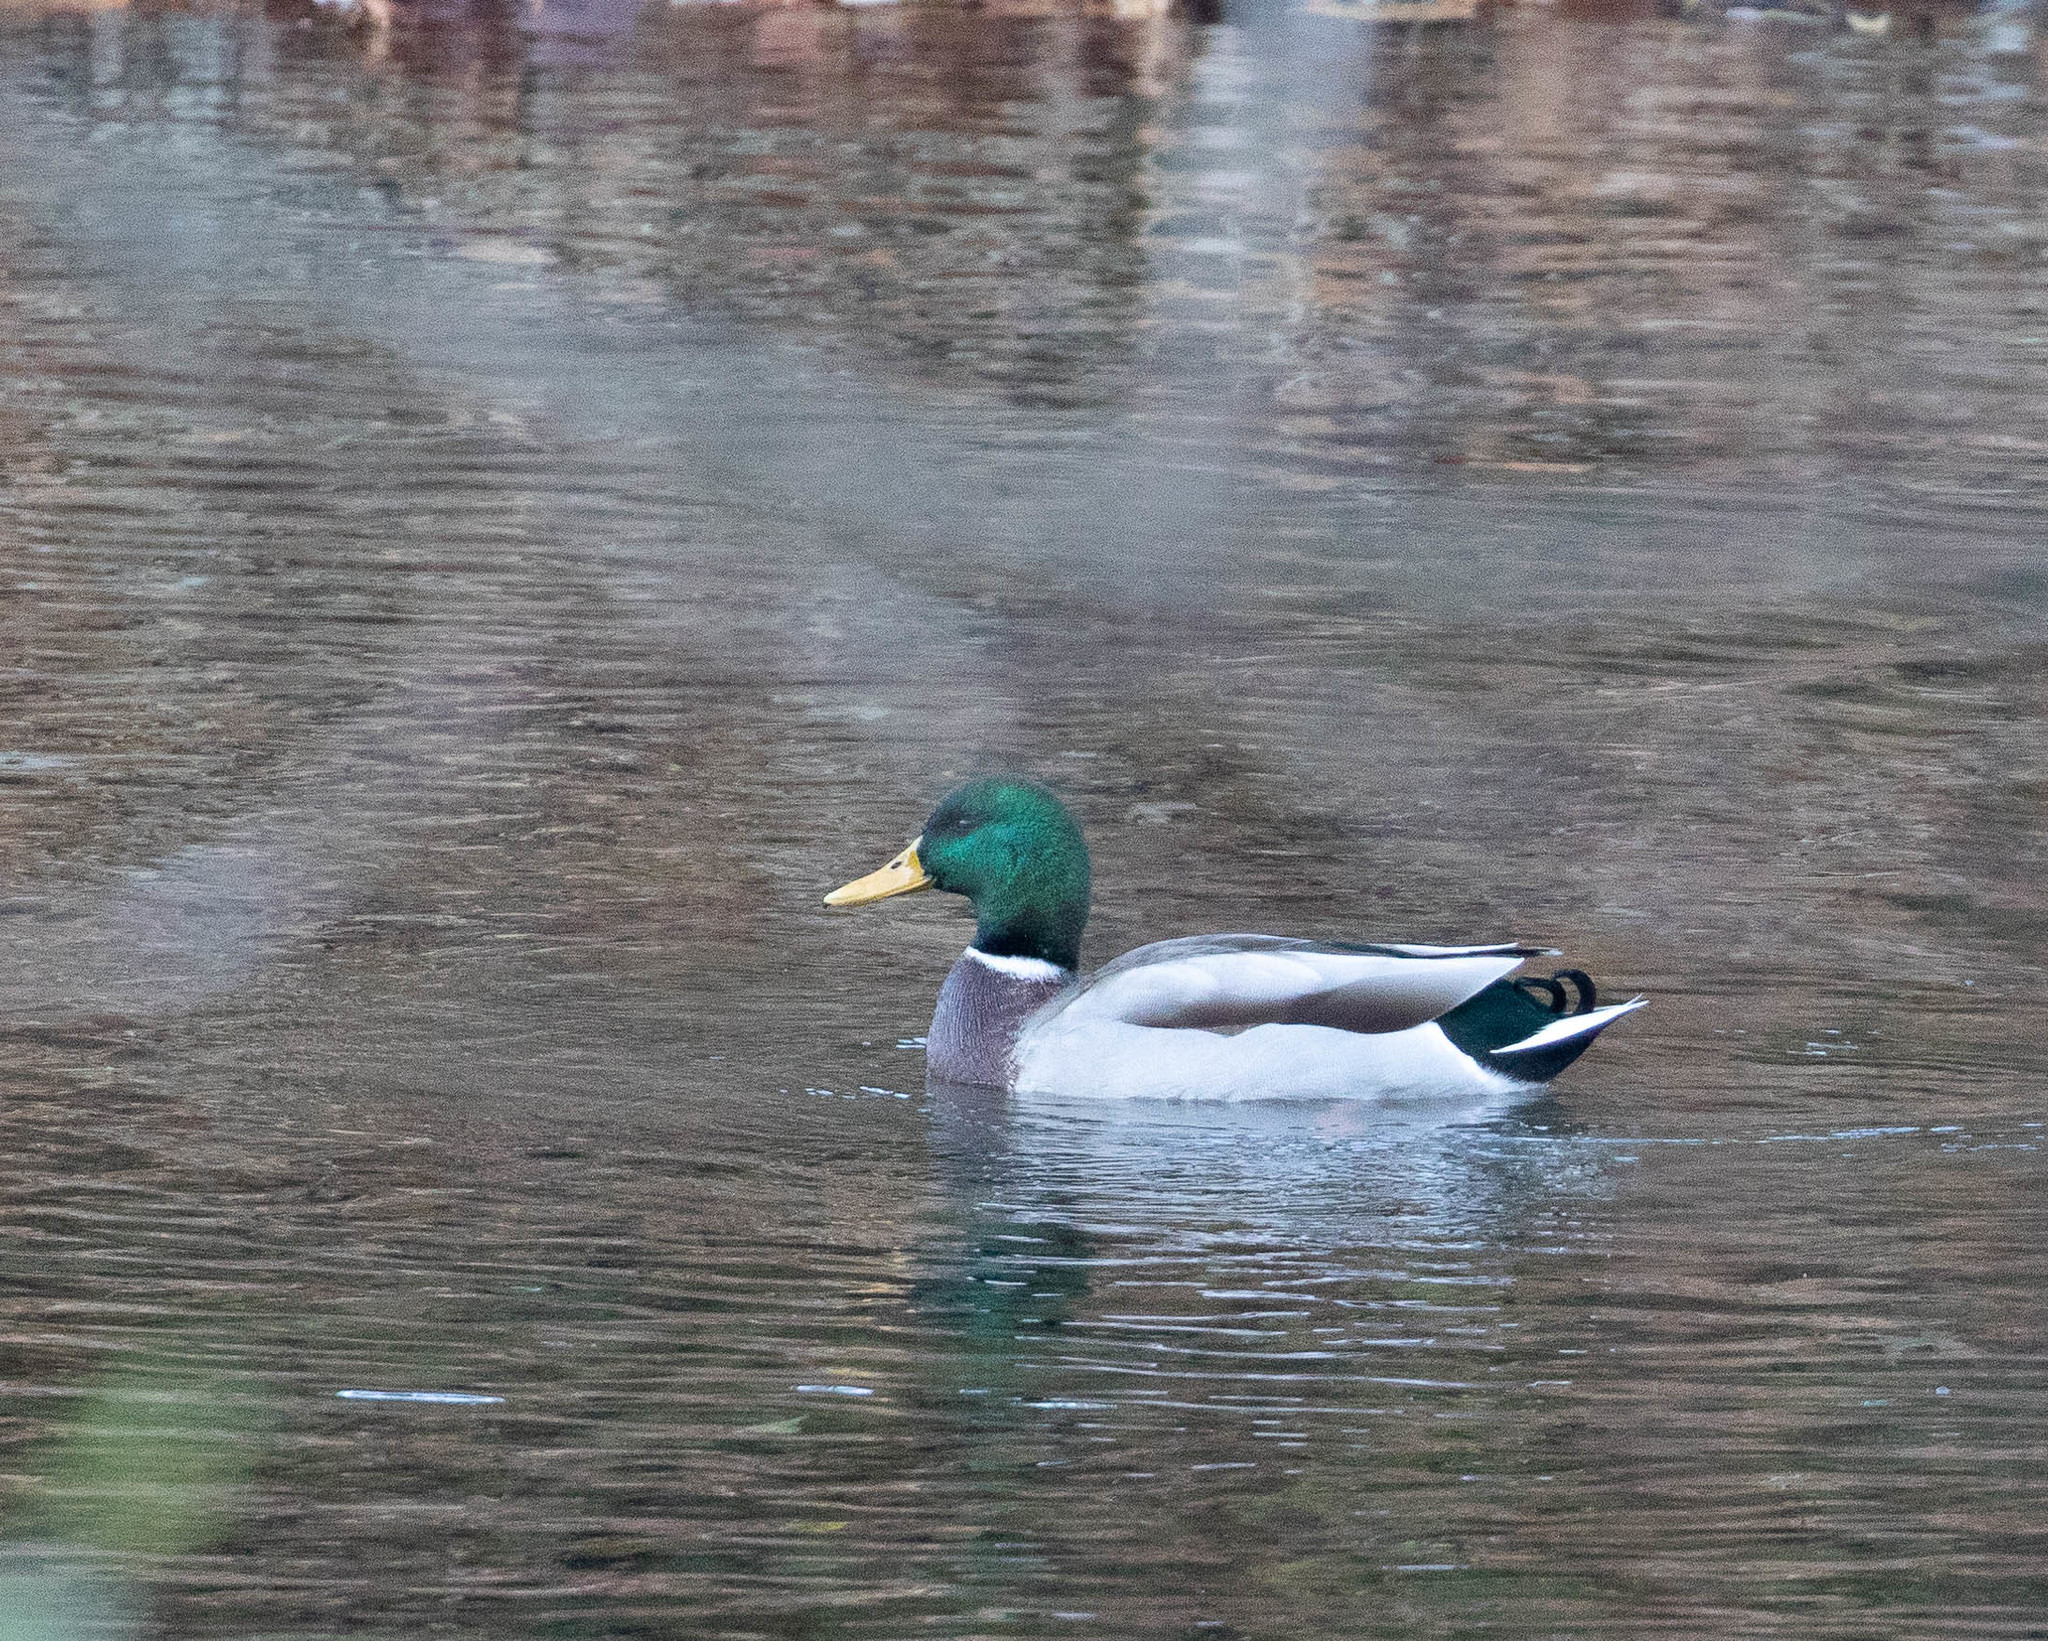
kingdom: Animalia
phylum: Chordata
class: Aves
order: Anseriformes
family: Anatidae
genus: Anas
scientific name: Anas platyrhynchos
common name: Mallard
